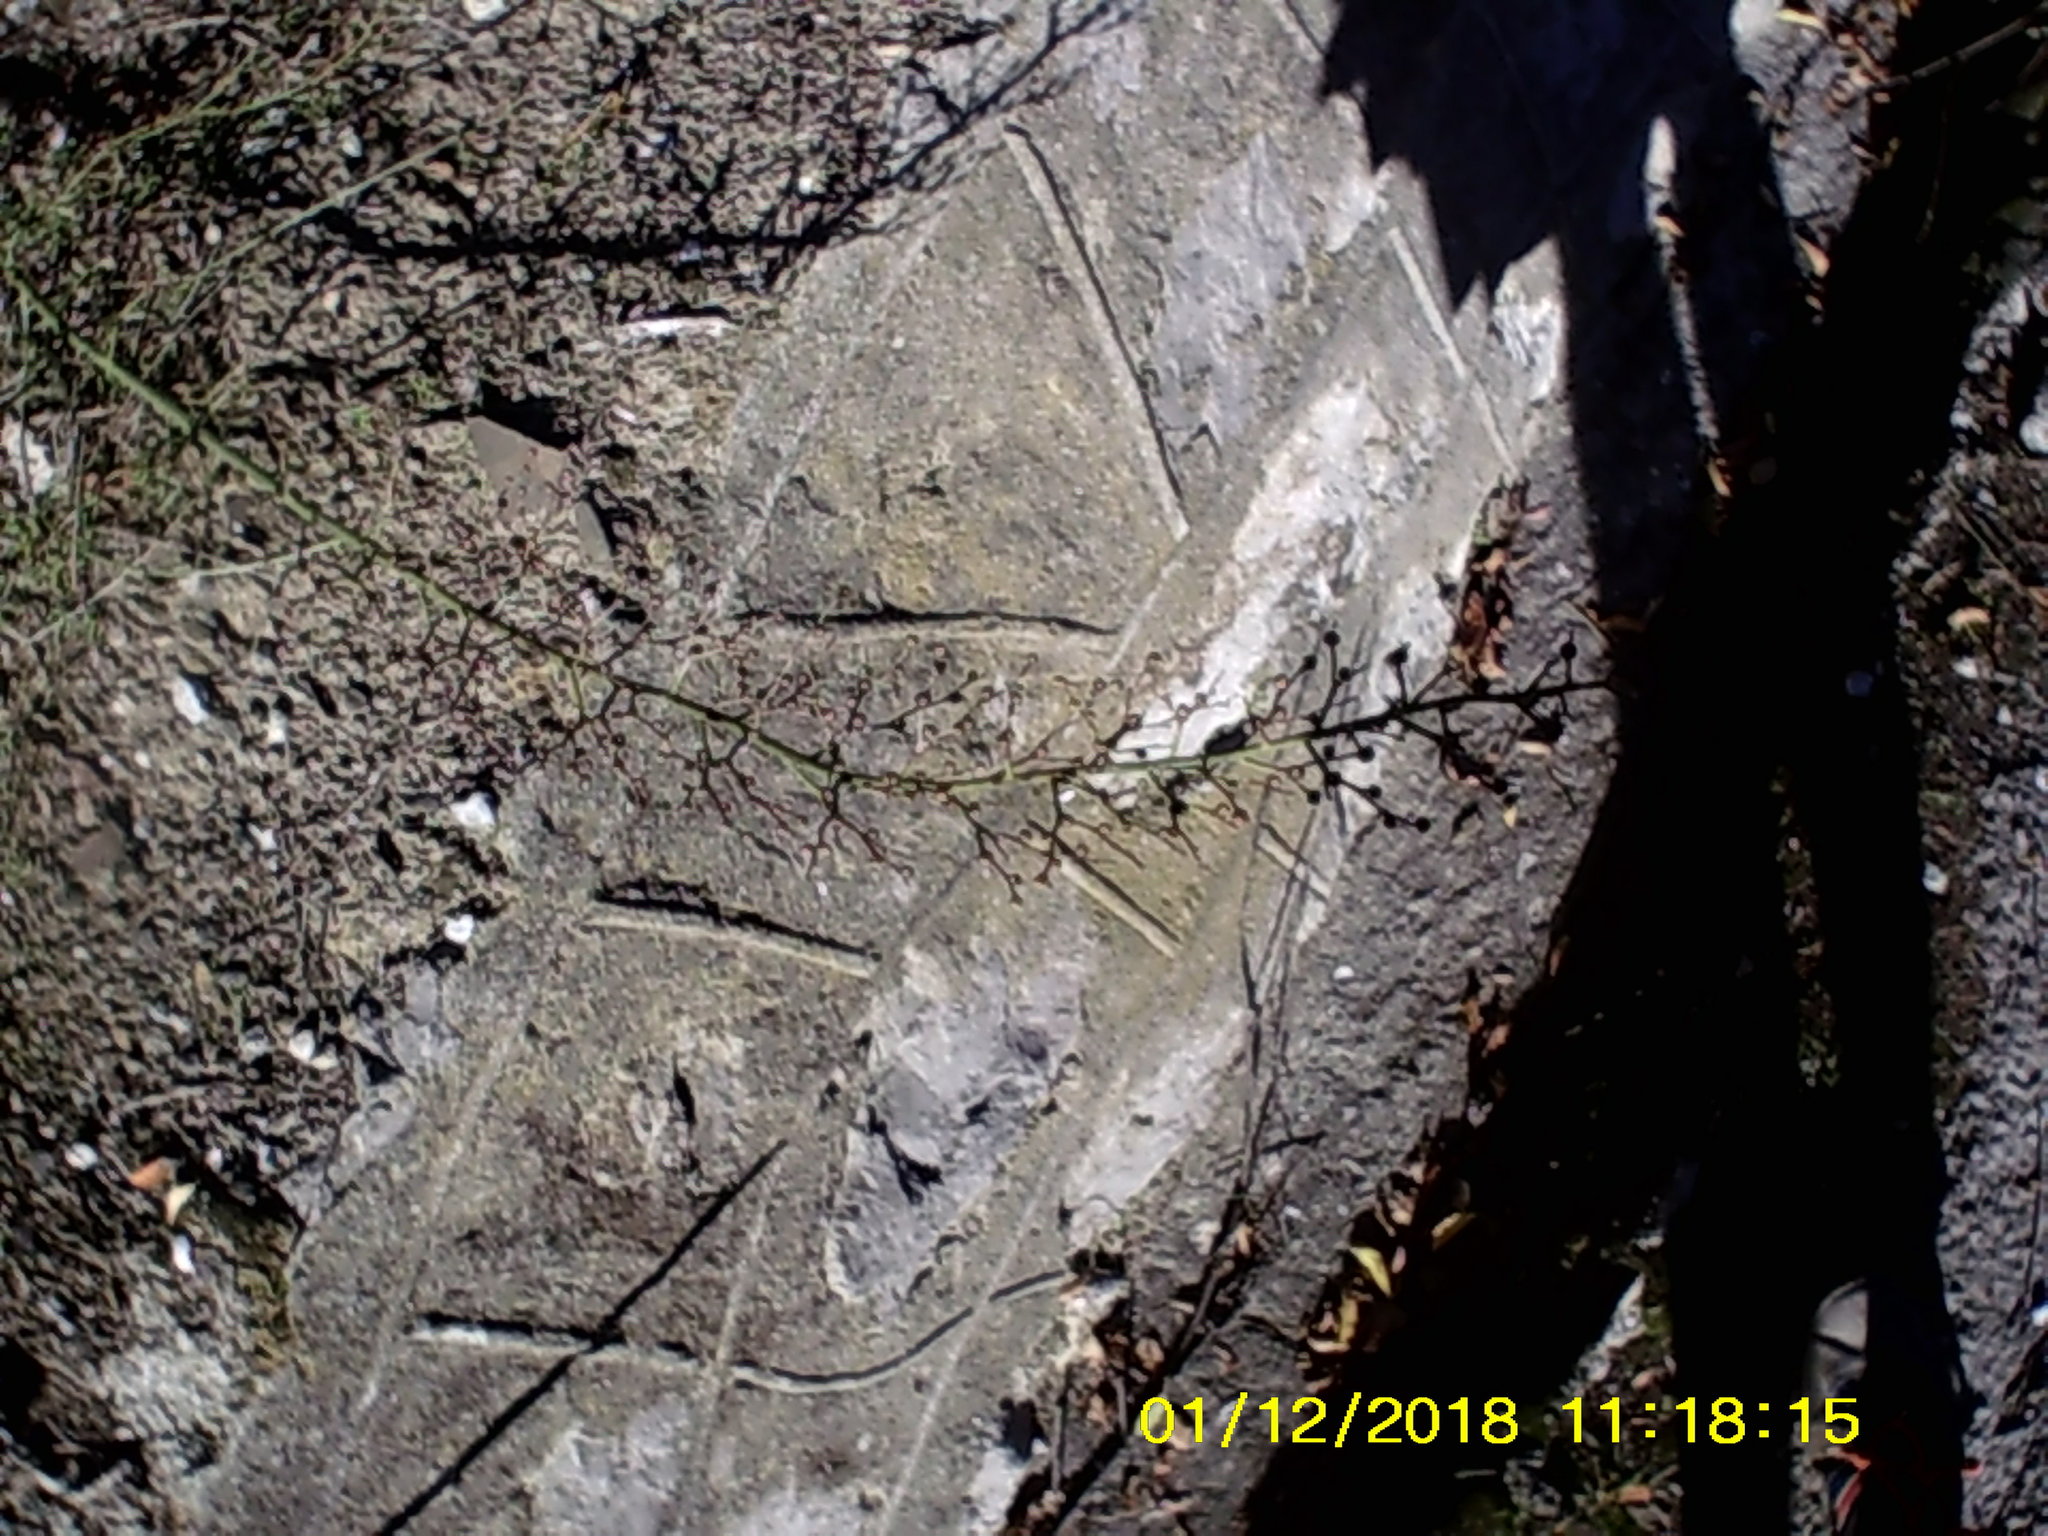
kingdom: Plantae
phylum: Tracheophyta
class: Magnoliopsida
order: Lamiales
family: Scrophulariaceae
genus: Scrophularia
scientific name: Scrophularia canina
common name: French figwort
